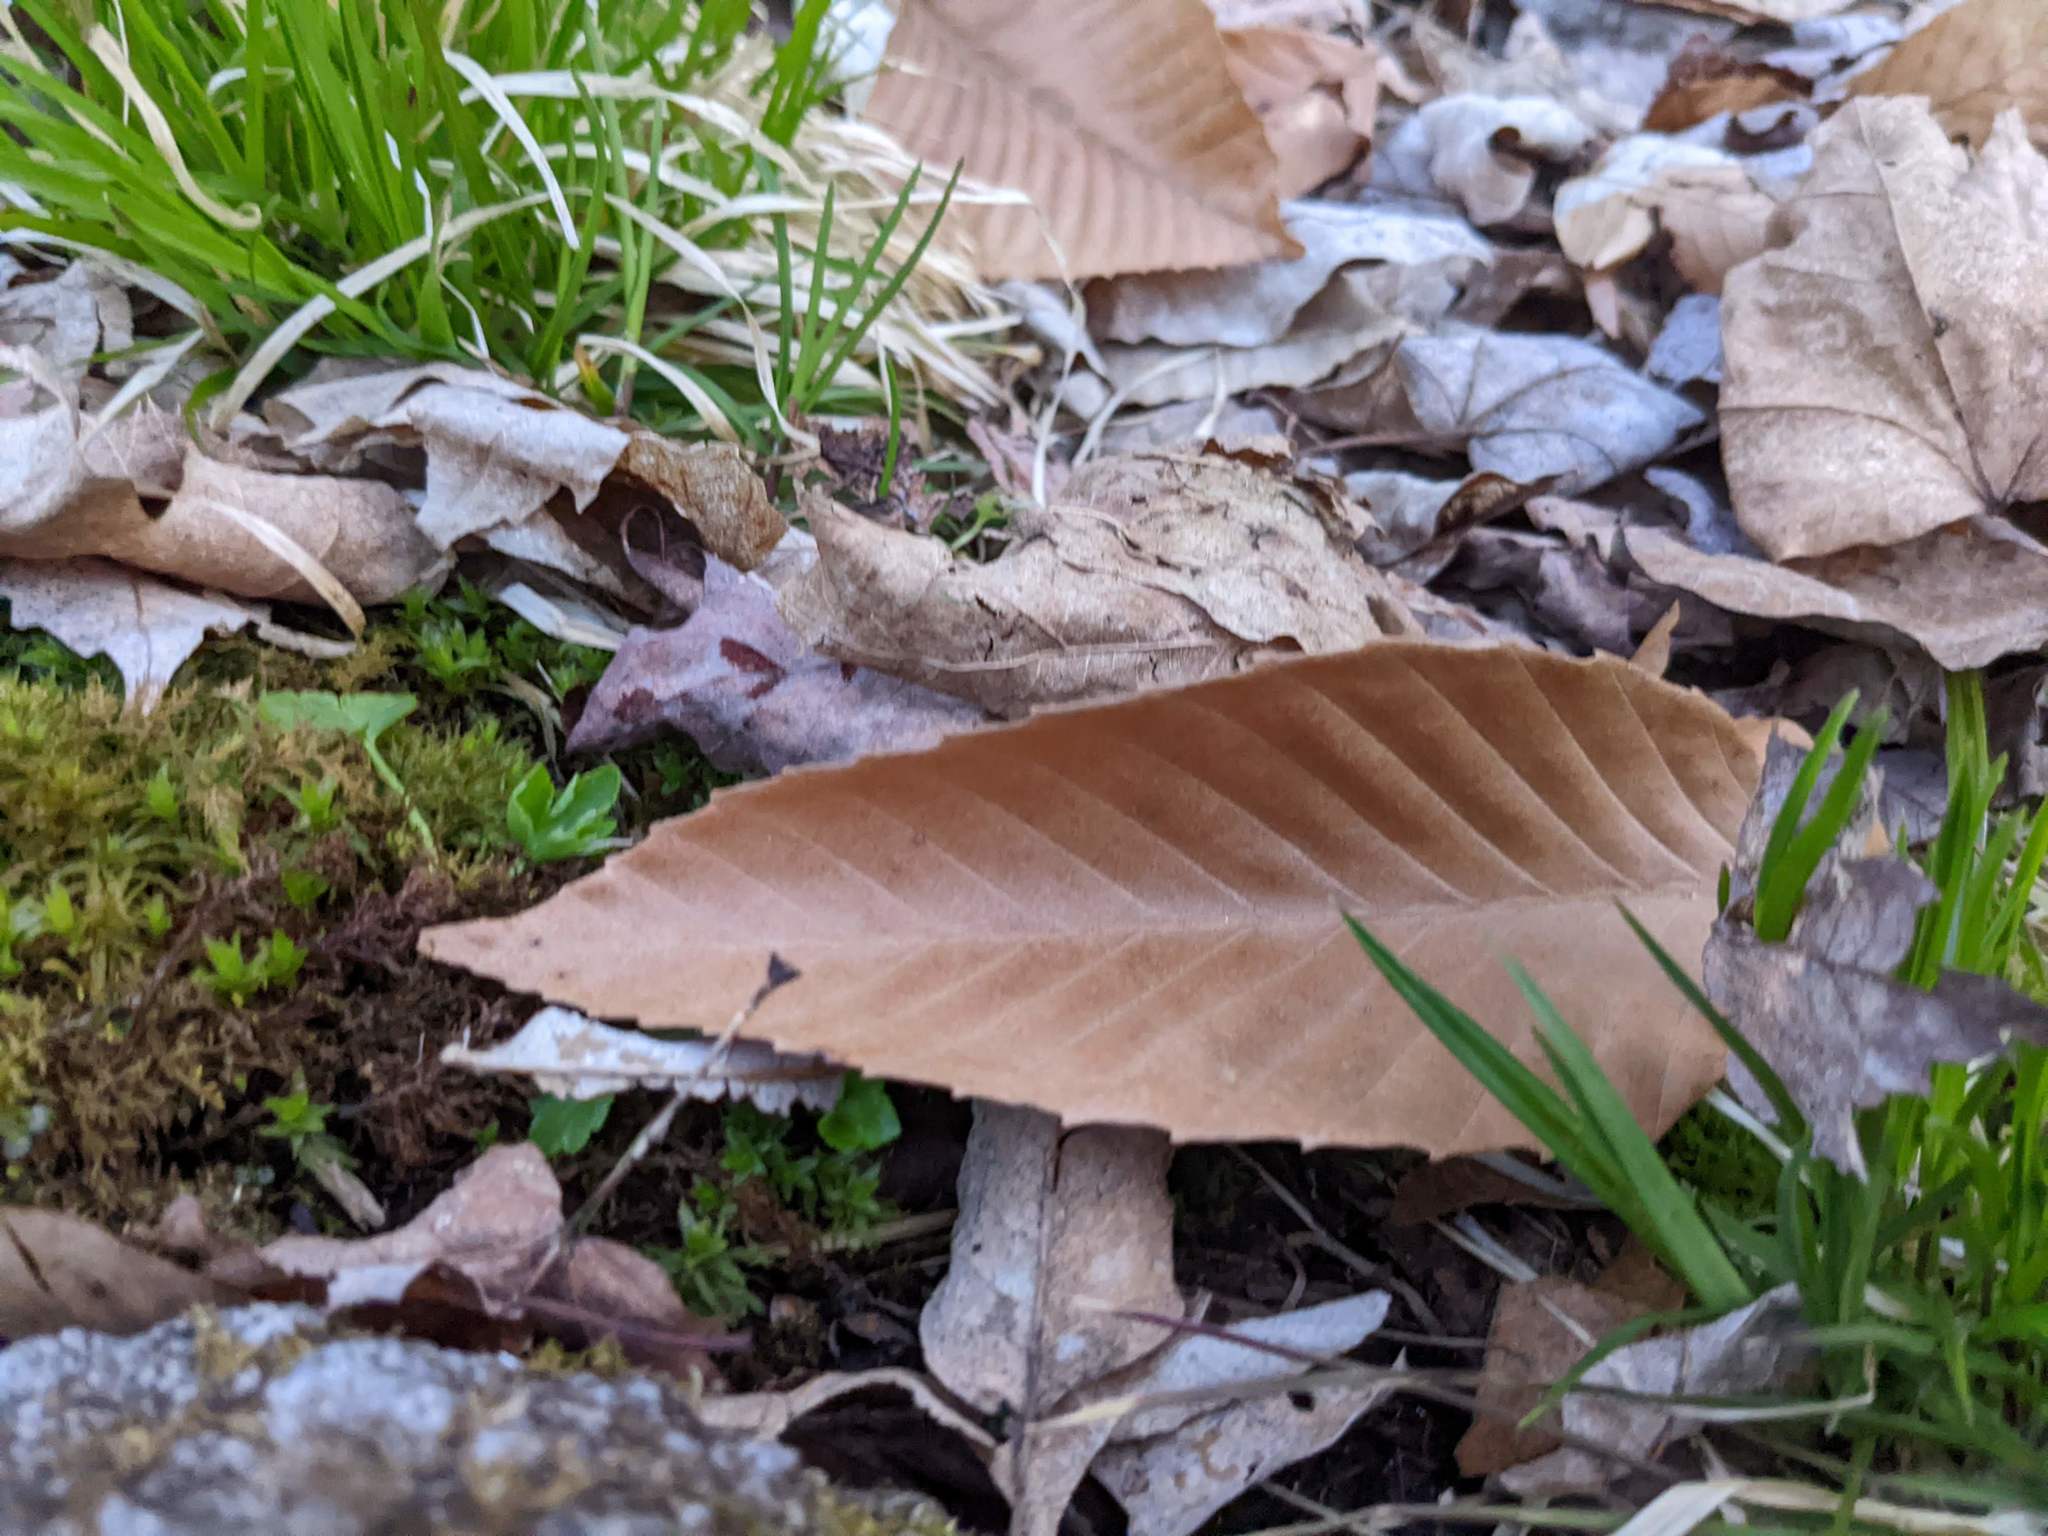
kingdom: Plantae
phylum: Tracheophyta
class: Magnoliopsida
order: Fagales
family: Fagaceae
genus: Fagus
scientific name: Fagus grandifolia
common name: American beech
